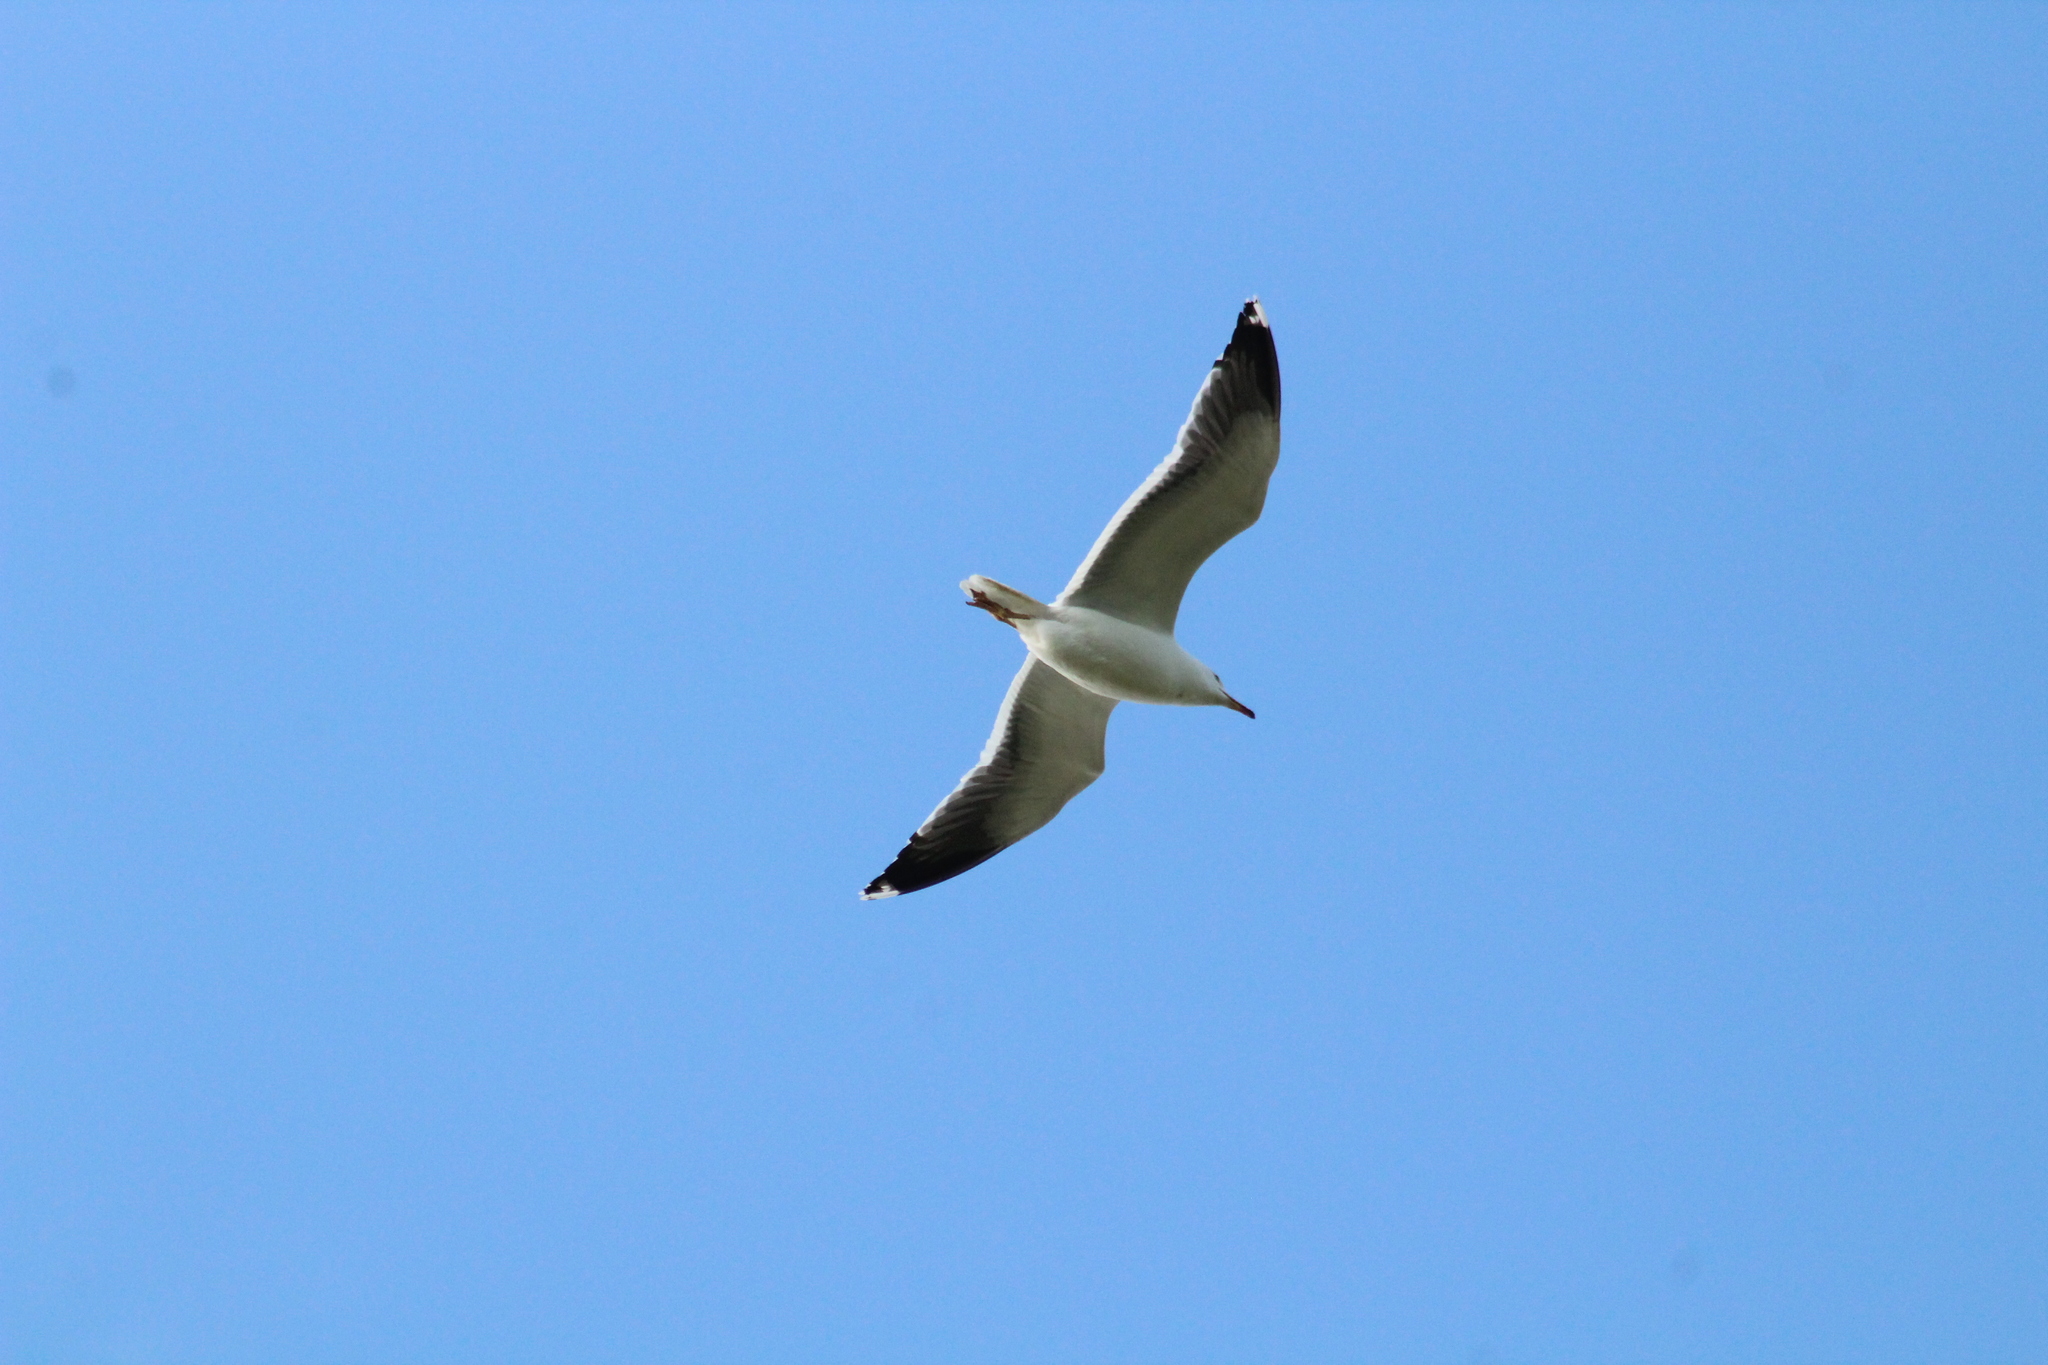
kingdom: Animalia
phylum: Chordata
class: Aves
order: Charadriiformes
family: Laridae
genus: Larus
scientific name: Larus fuscus
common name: Lesser black-backed gull
